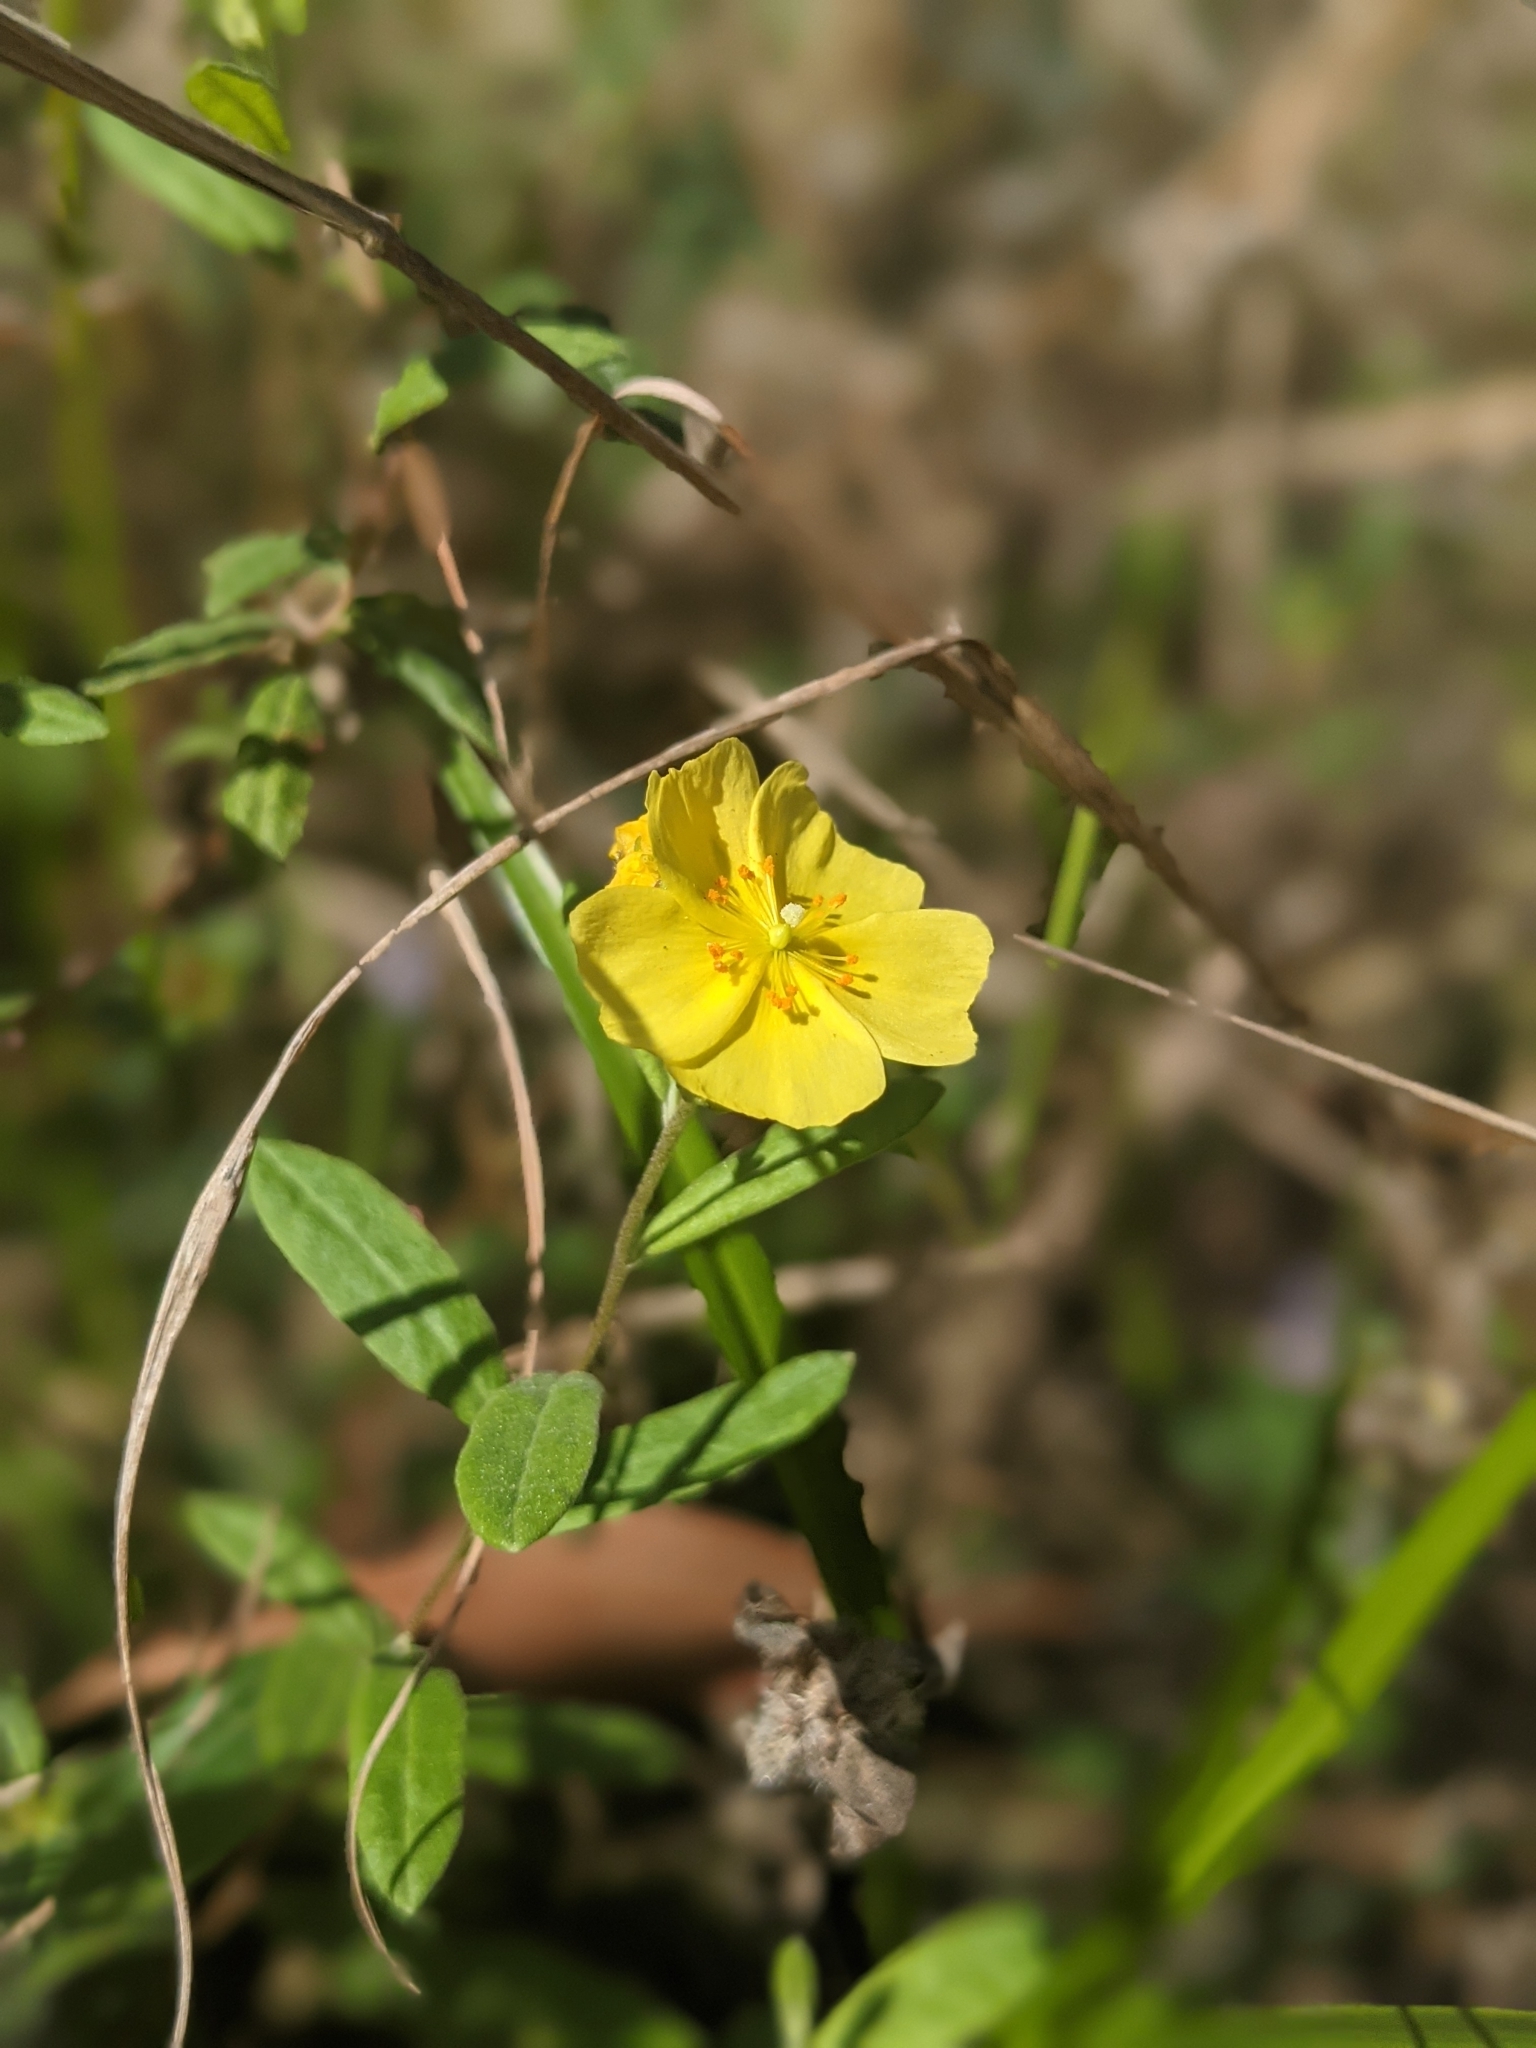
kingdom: Plantae
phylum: Tracheophyta
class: Magnoliopsida
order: Malvales
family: Cistaceae
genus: Crocanthemum
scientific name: Crocanthemum corymbosum
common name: Pinebarren sun-rose
